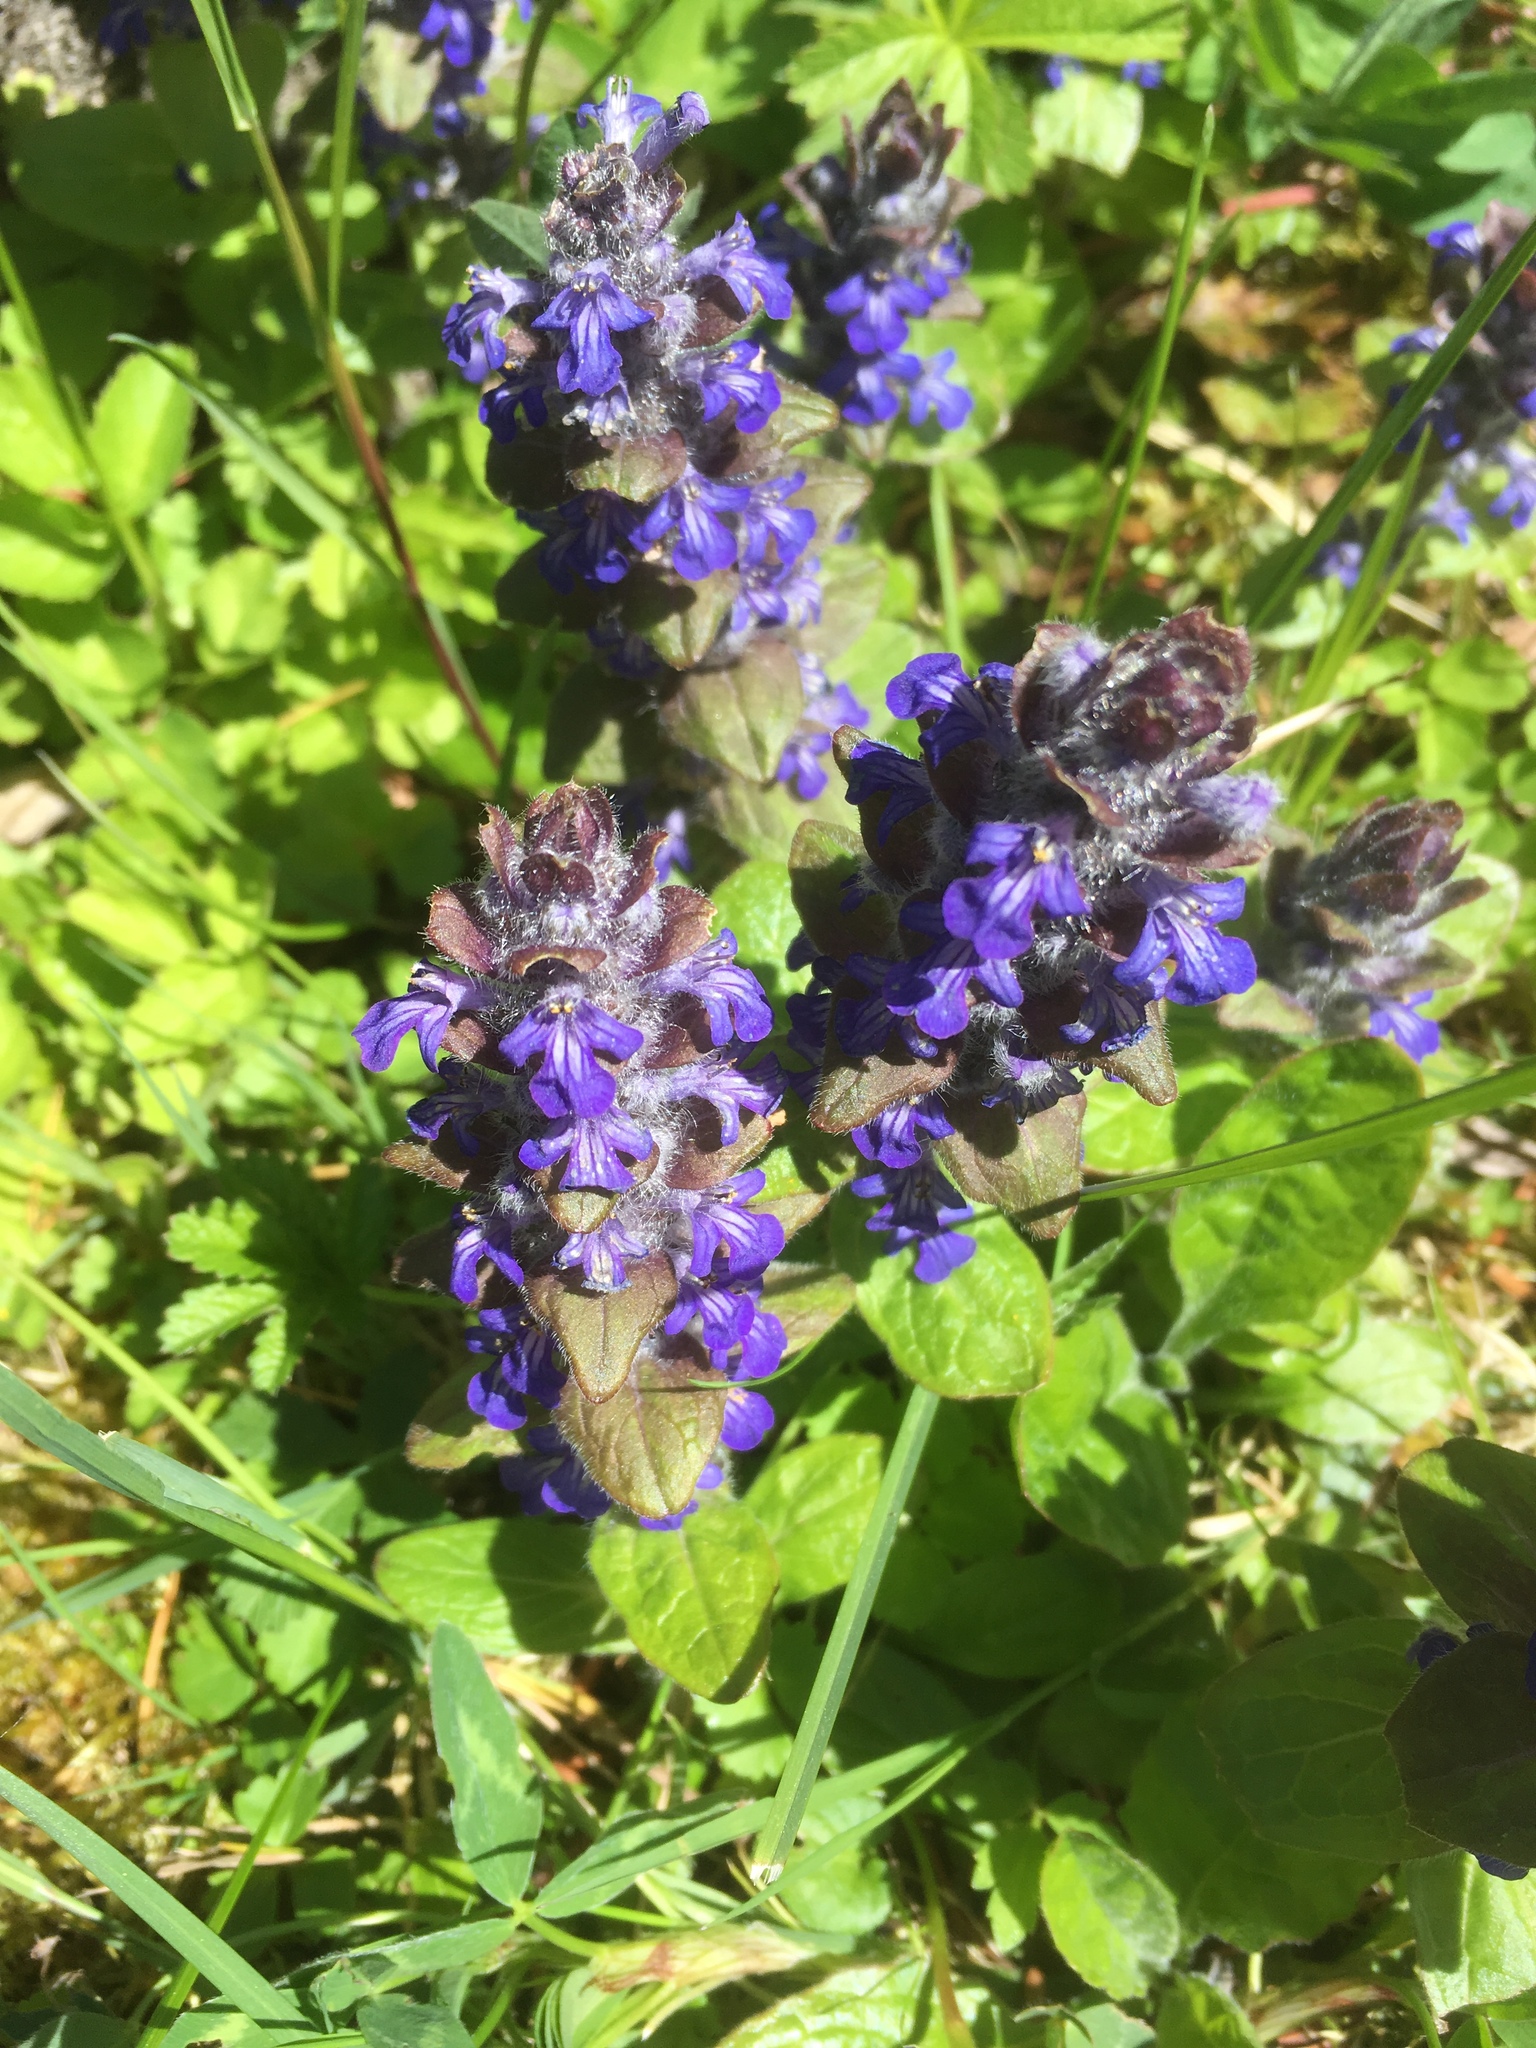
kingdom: Plantae
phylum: Tracheophyta
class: Magnoliopsida
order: Lamiales
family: Lamiaceae
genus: Ajuga
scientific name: Ajuga reptans
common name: Bugle
